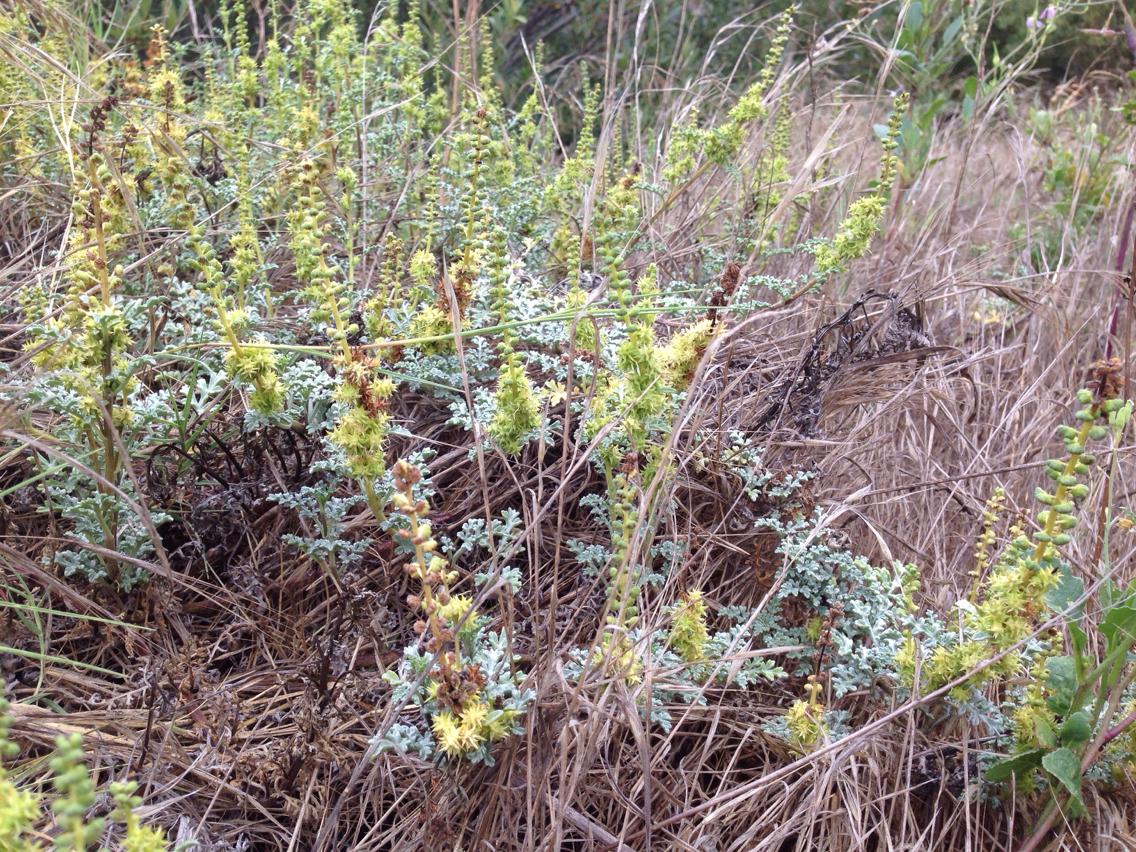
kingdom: Plantae
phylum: Tracheophyta
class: Magnoliopsida
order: Asterales
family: Asteraceae
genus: Ambrosia
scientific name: Ambrosia chamissonis
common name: Beachbur
